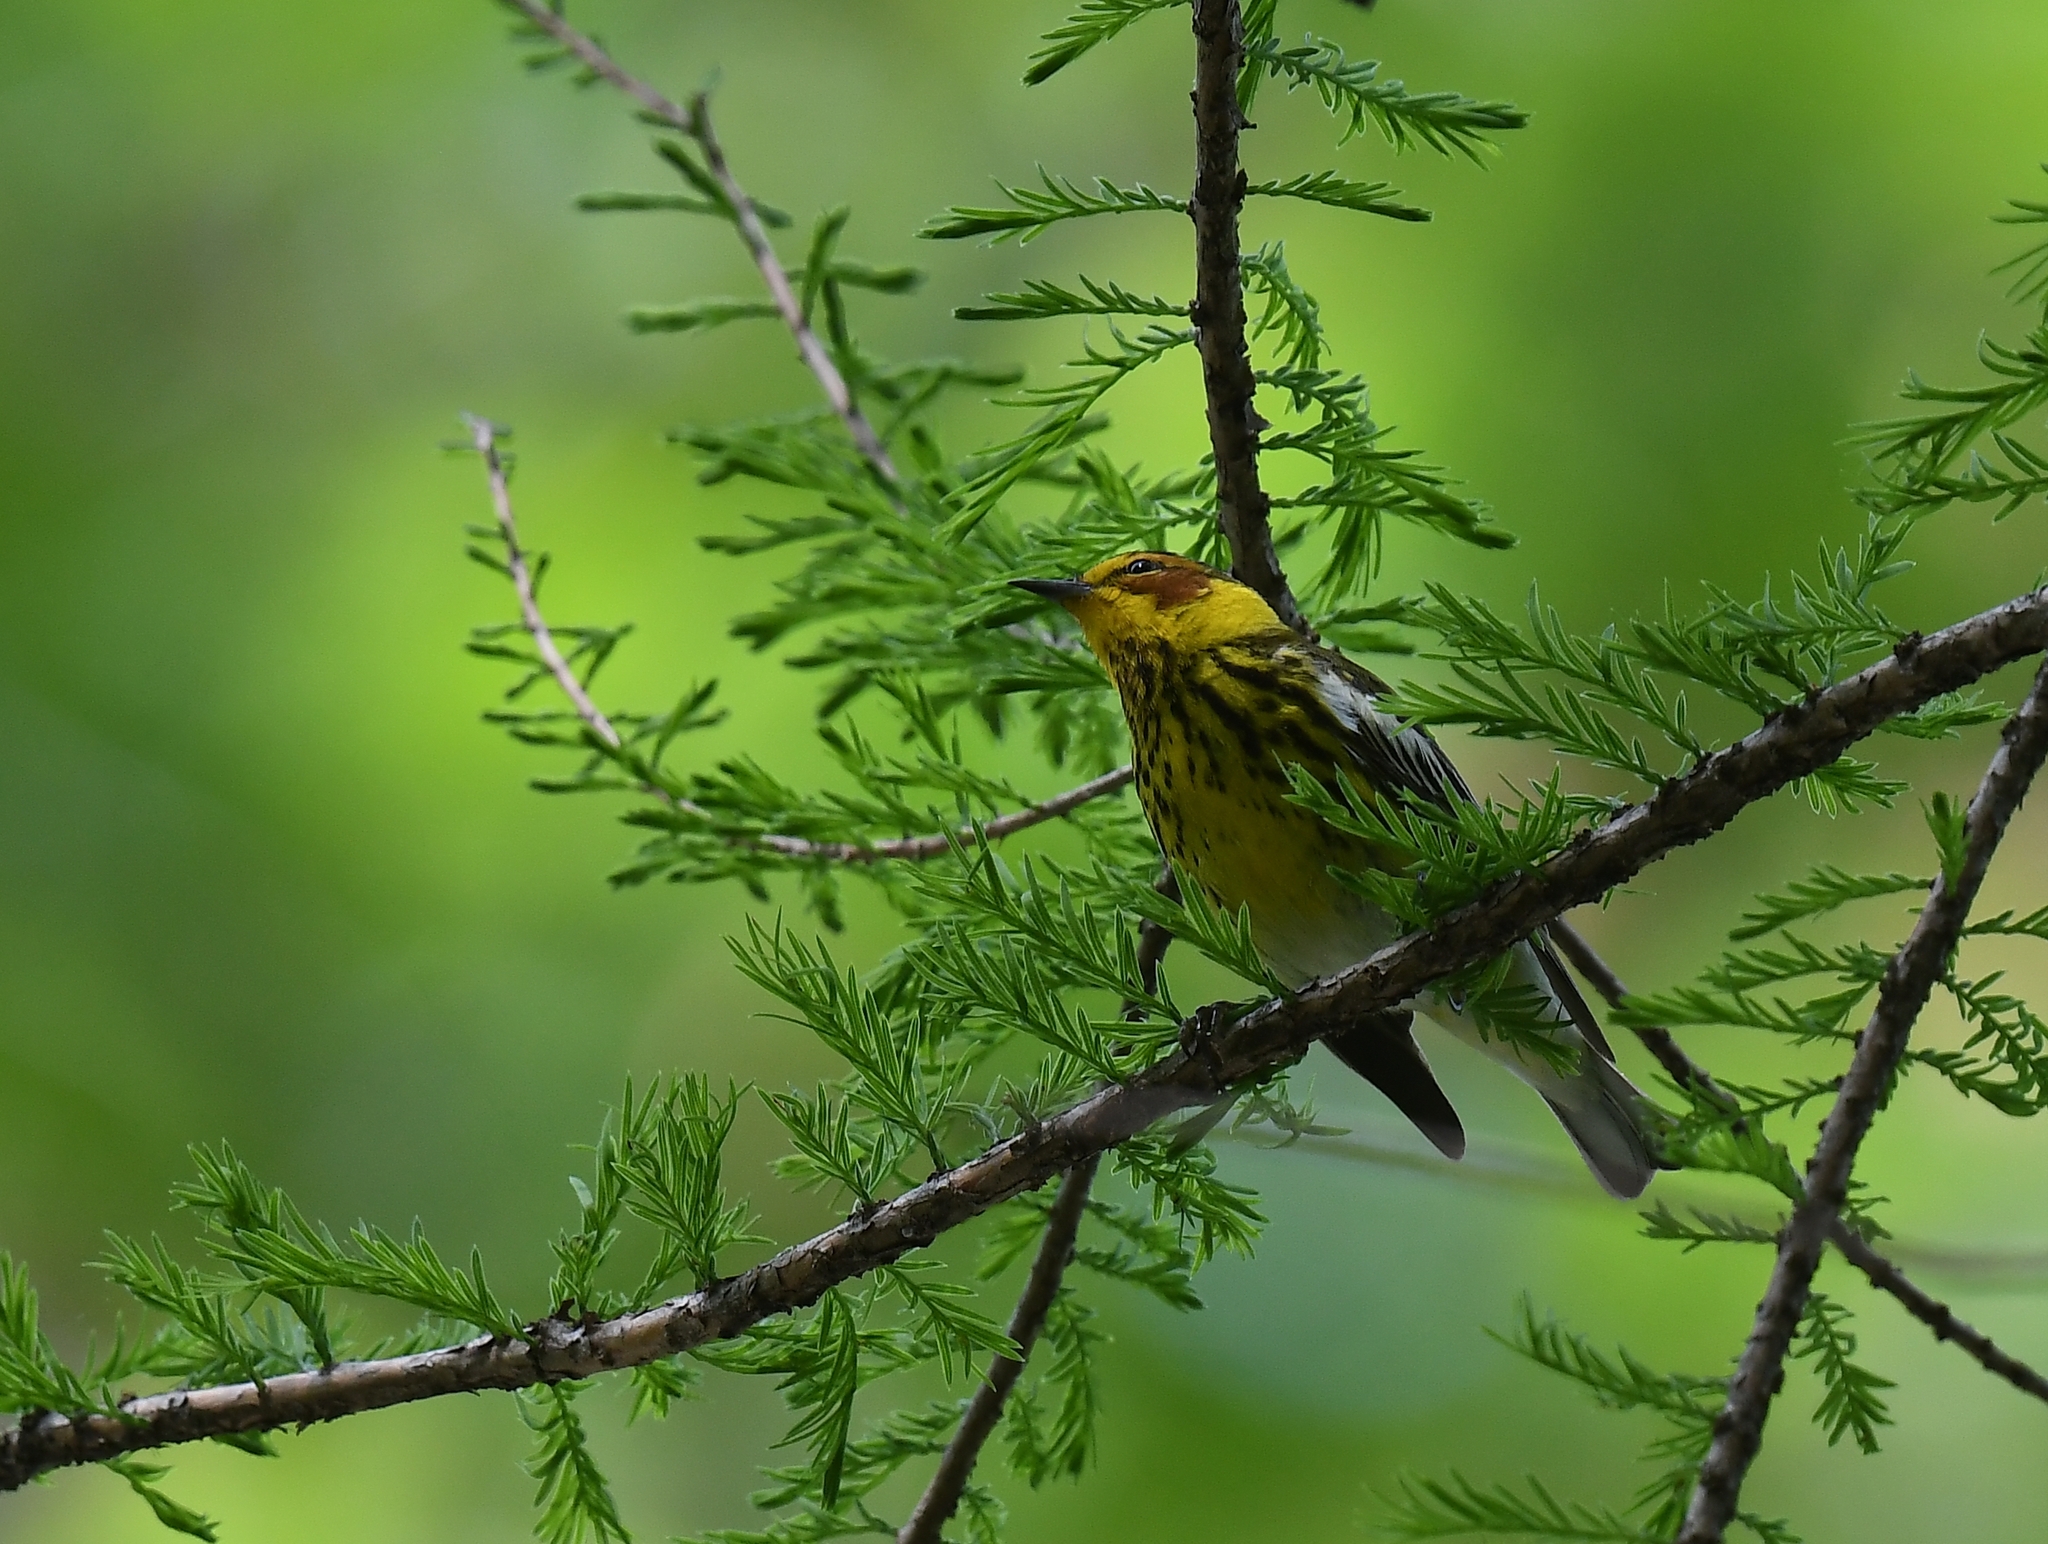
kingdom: Animalia
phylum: Chordata
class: Aves
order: Passeriformes
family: Parulidae
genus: Setophaga
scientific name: Setophaga tigrina
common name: Cape may warbler
